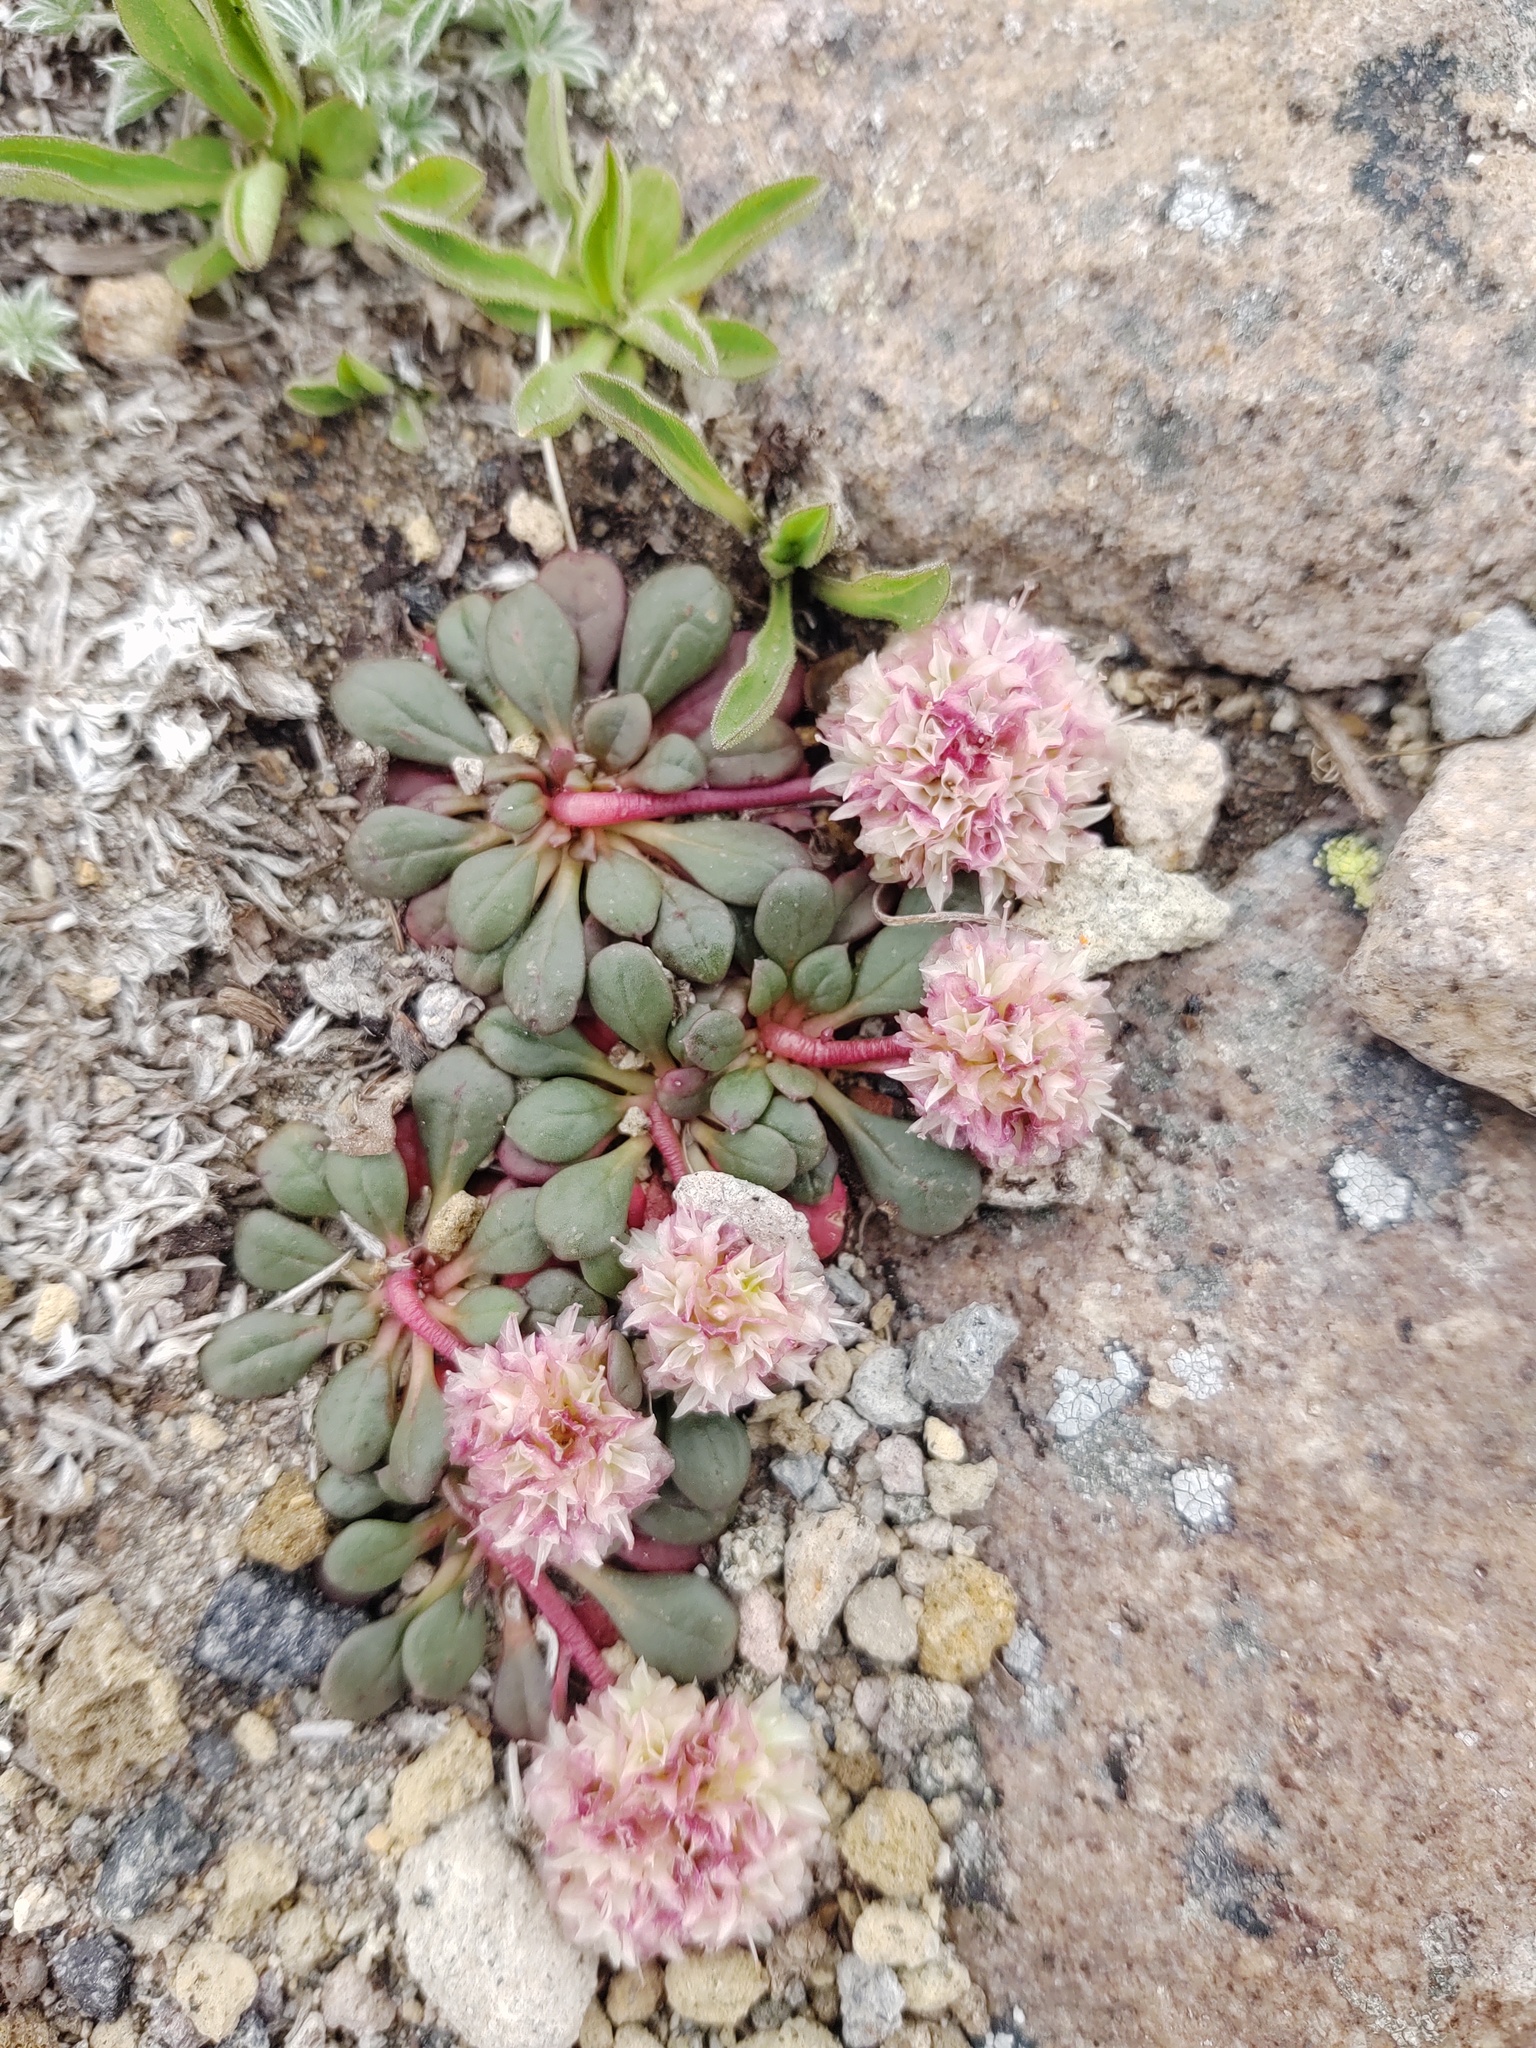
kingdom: Plantae
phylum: Tracheophyta
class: Magnoliopsida
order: Caryophyllales
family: Montiaceae
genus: Calyptridium
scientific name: Calyptridium umbellatum
